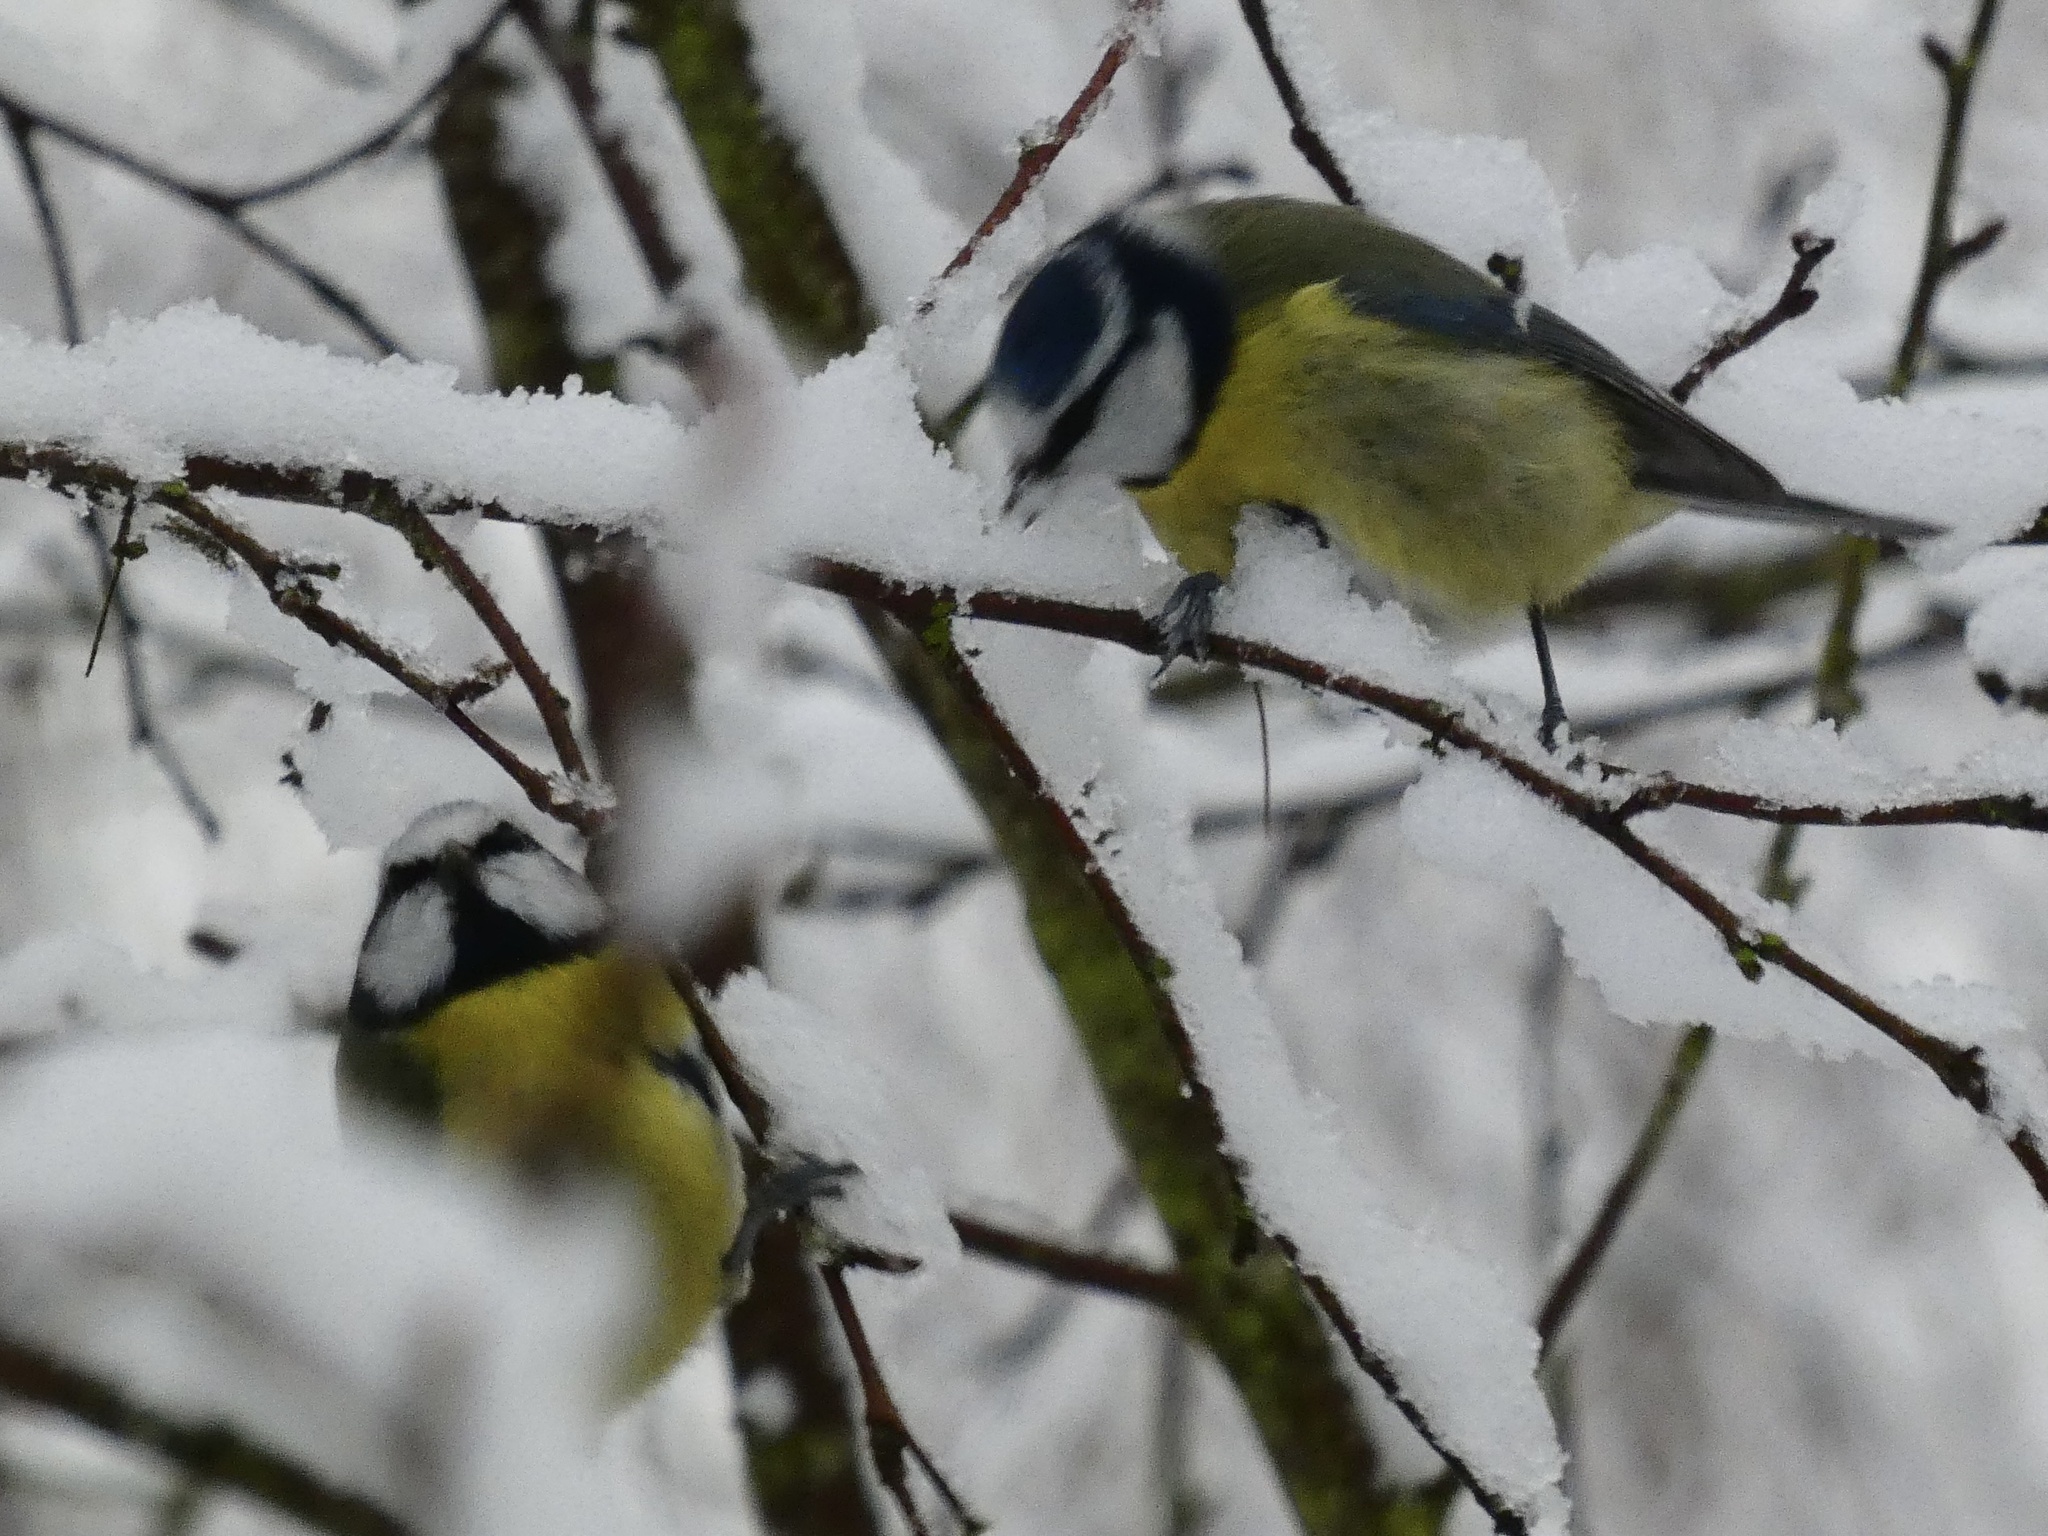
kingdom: Animalia
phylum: Chordata
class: Aves
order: Passeriformes
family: Paridae
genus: Cyanistes
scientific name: Cyanistes caeruleus
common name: Eurasian blue tit
